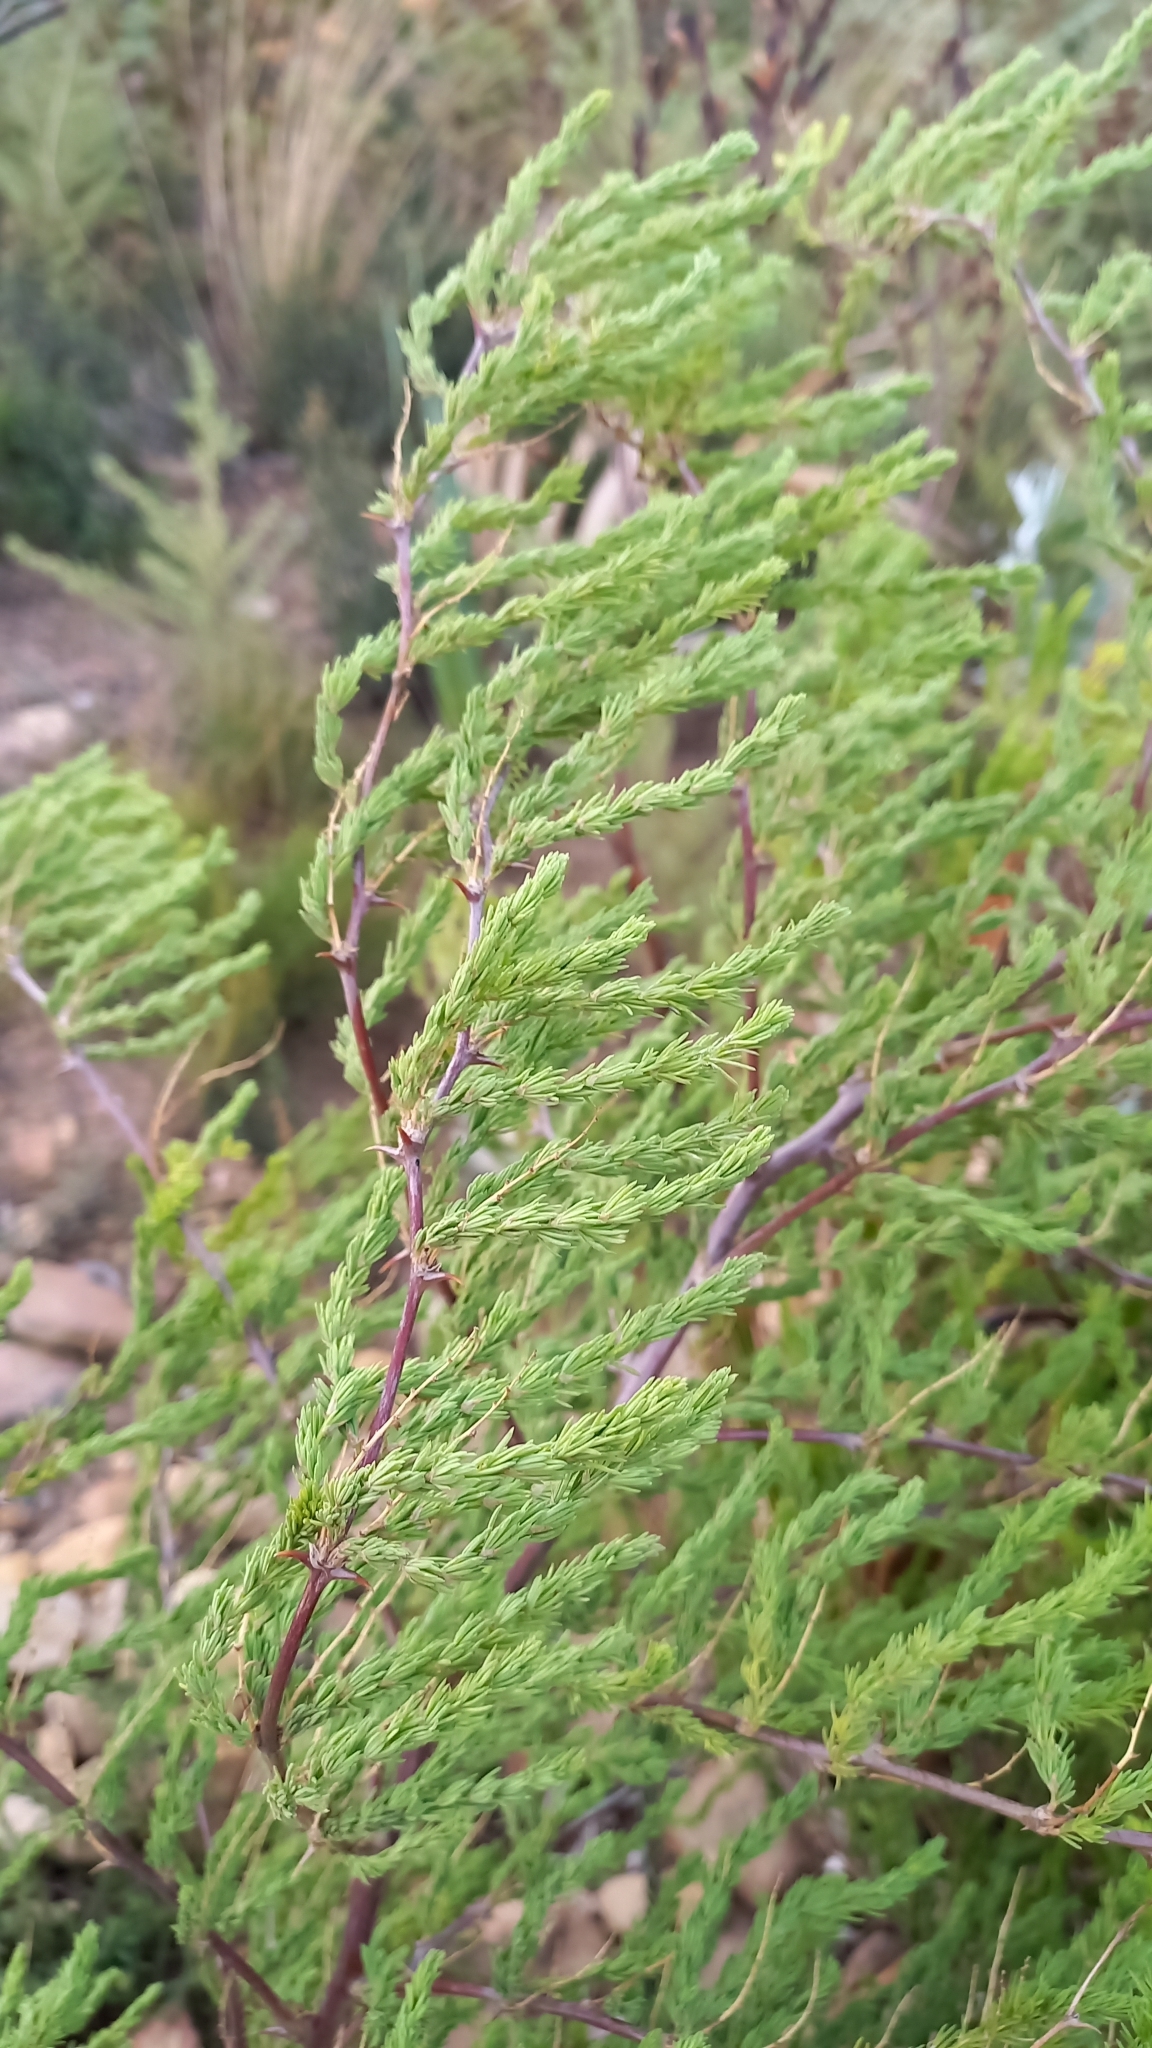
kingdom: Plantae
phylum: Tracheophyta
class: Liliopsida
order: Asparagales
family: Asparagaceae
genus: Asparagus
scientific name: Asparagus rubicundus
